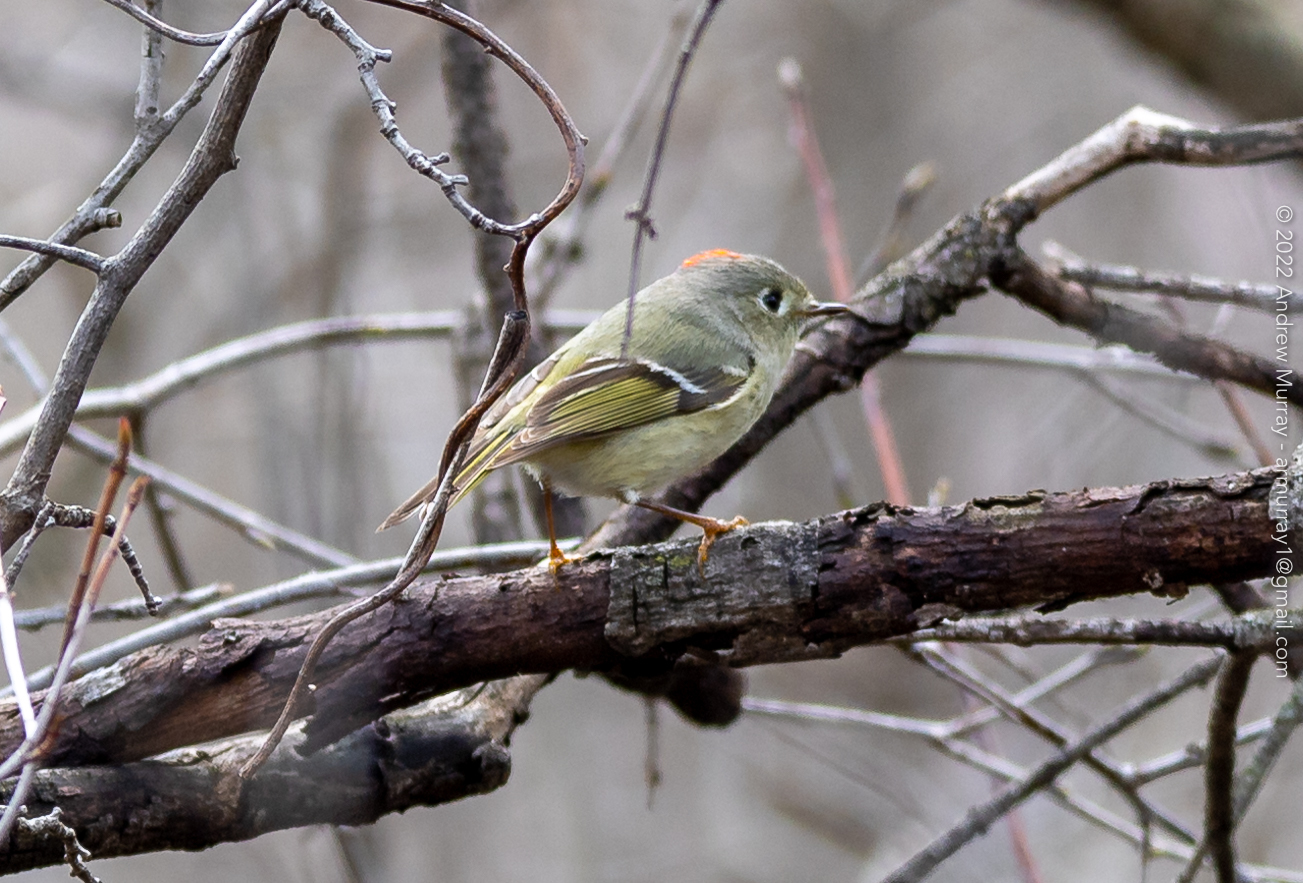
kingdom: Animalia
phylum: Chordata
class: Aves
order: Passeriformes
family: Regulidae
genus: Regulus
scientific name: Regulus calendula
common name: Ruby-crowned kinglet
